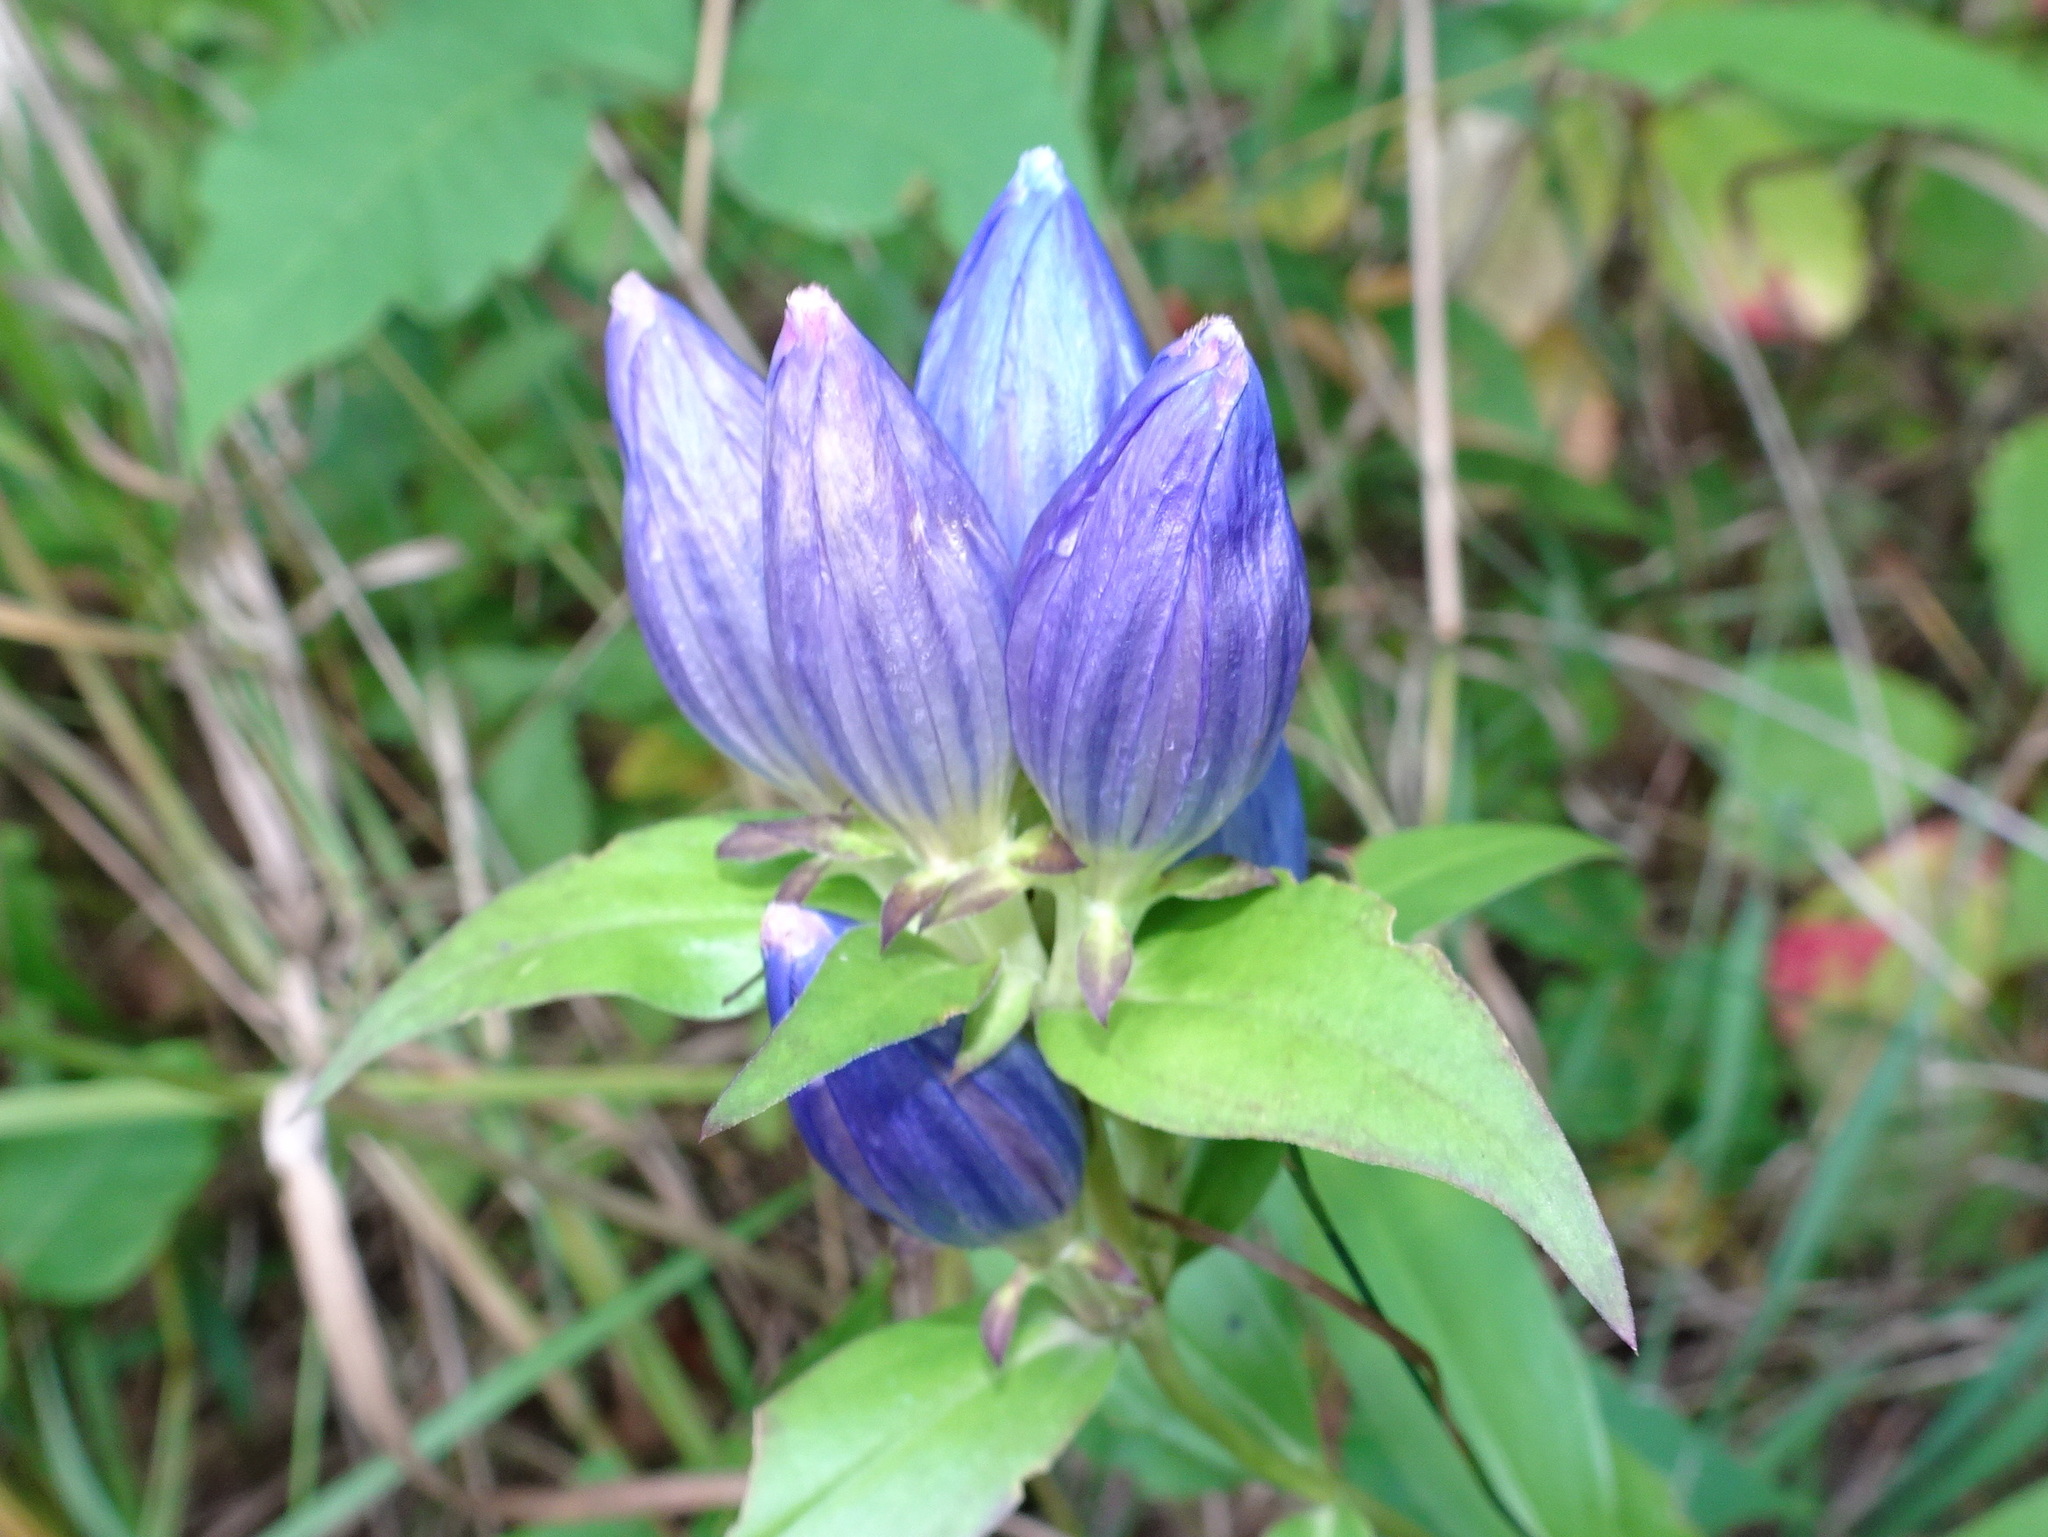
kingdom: Plantae
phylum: Tracheophyta
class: Magnoliopsida
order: Gentianales
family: Gentianaceae
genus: Gentiana
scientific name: Gentiana andrewsii
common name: Bottle gentian
